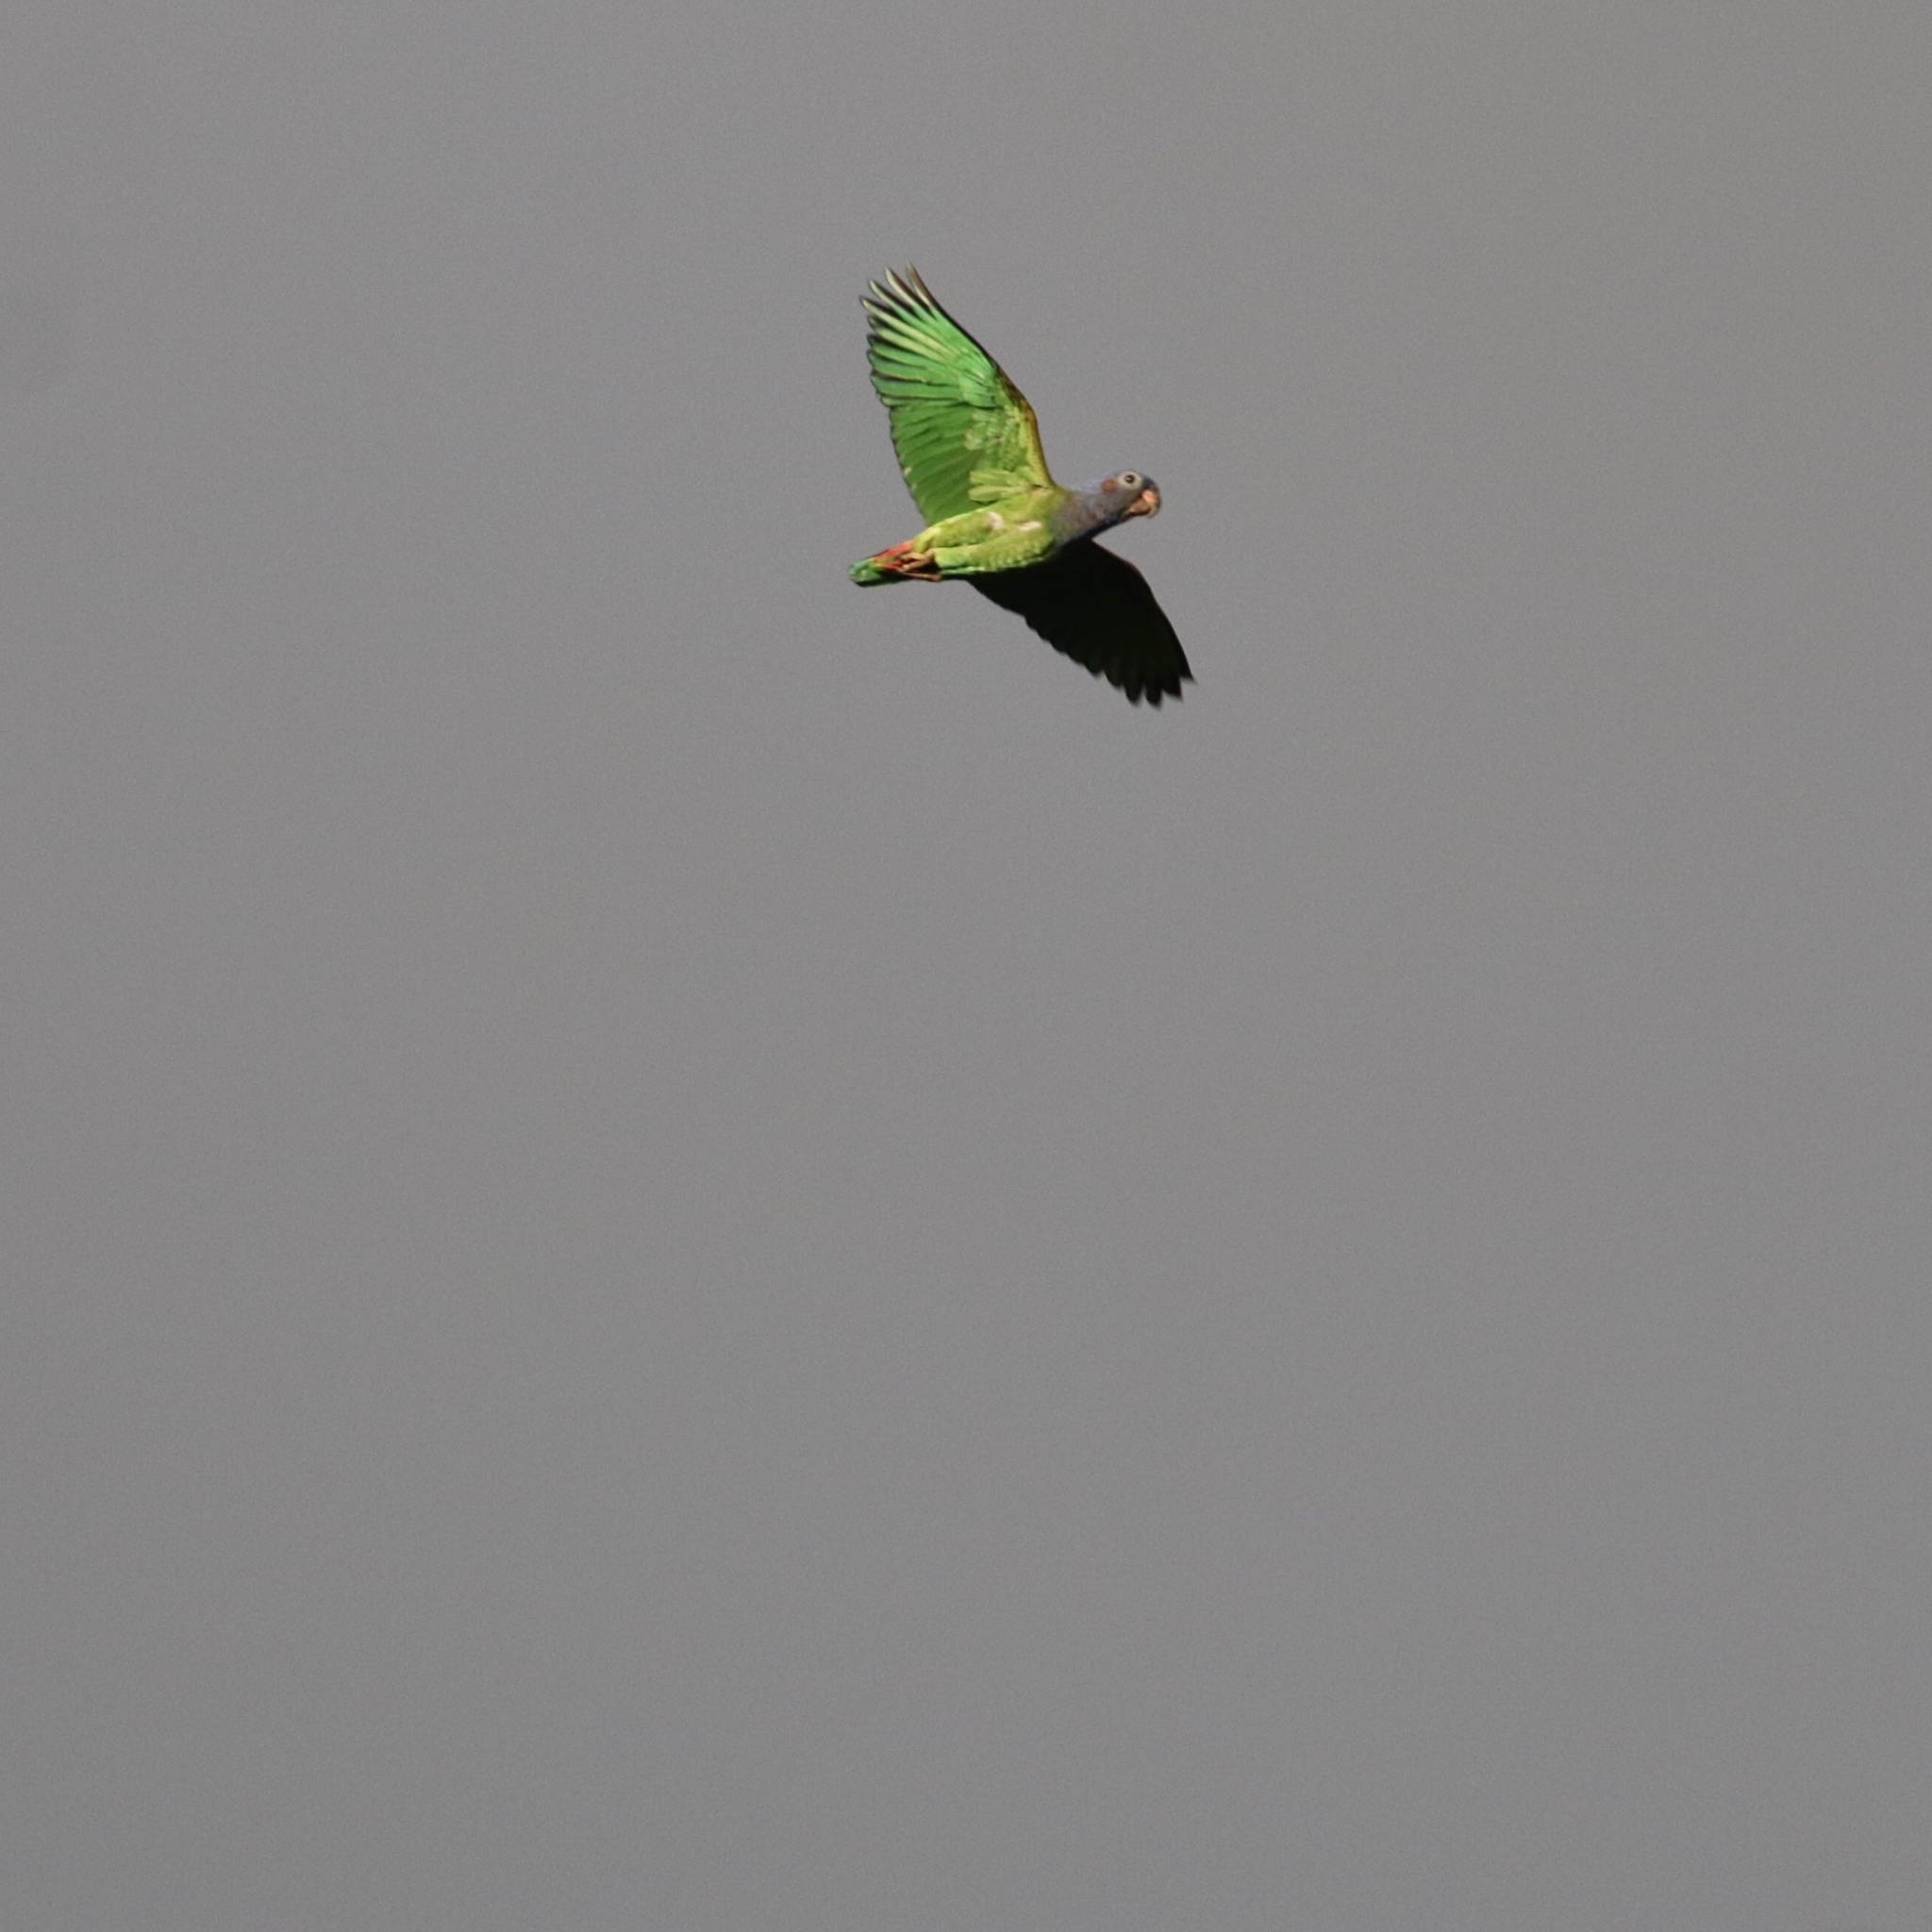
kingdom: Animalia
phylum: Chordata
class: Aves
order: Psittaciformes
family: Psittacidae
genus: Pionus
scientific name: Pionus menstruus
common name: Blue-headed parrot
